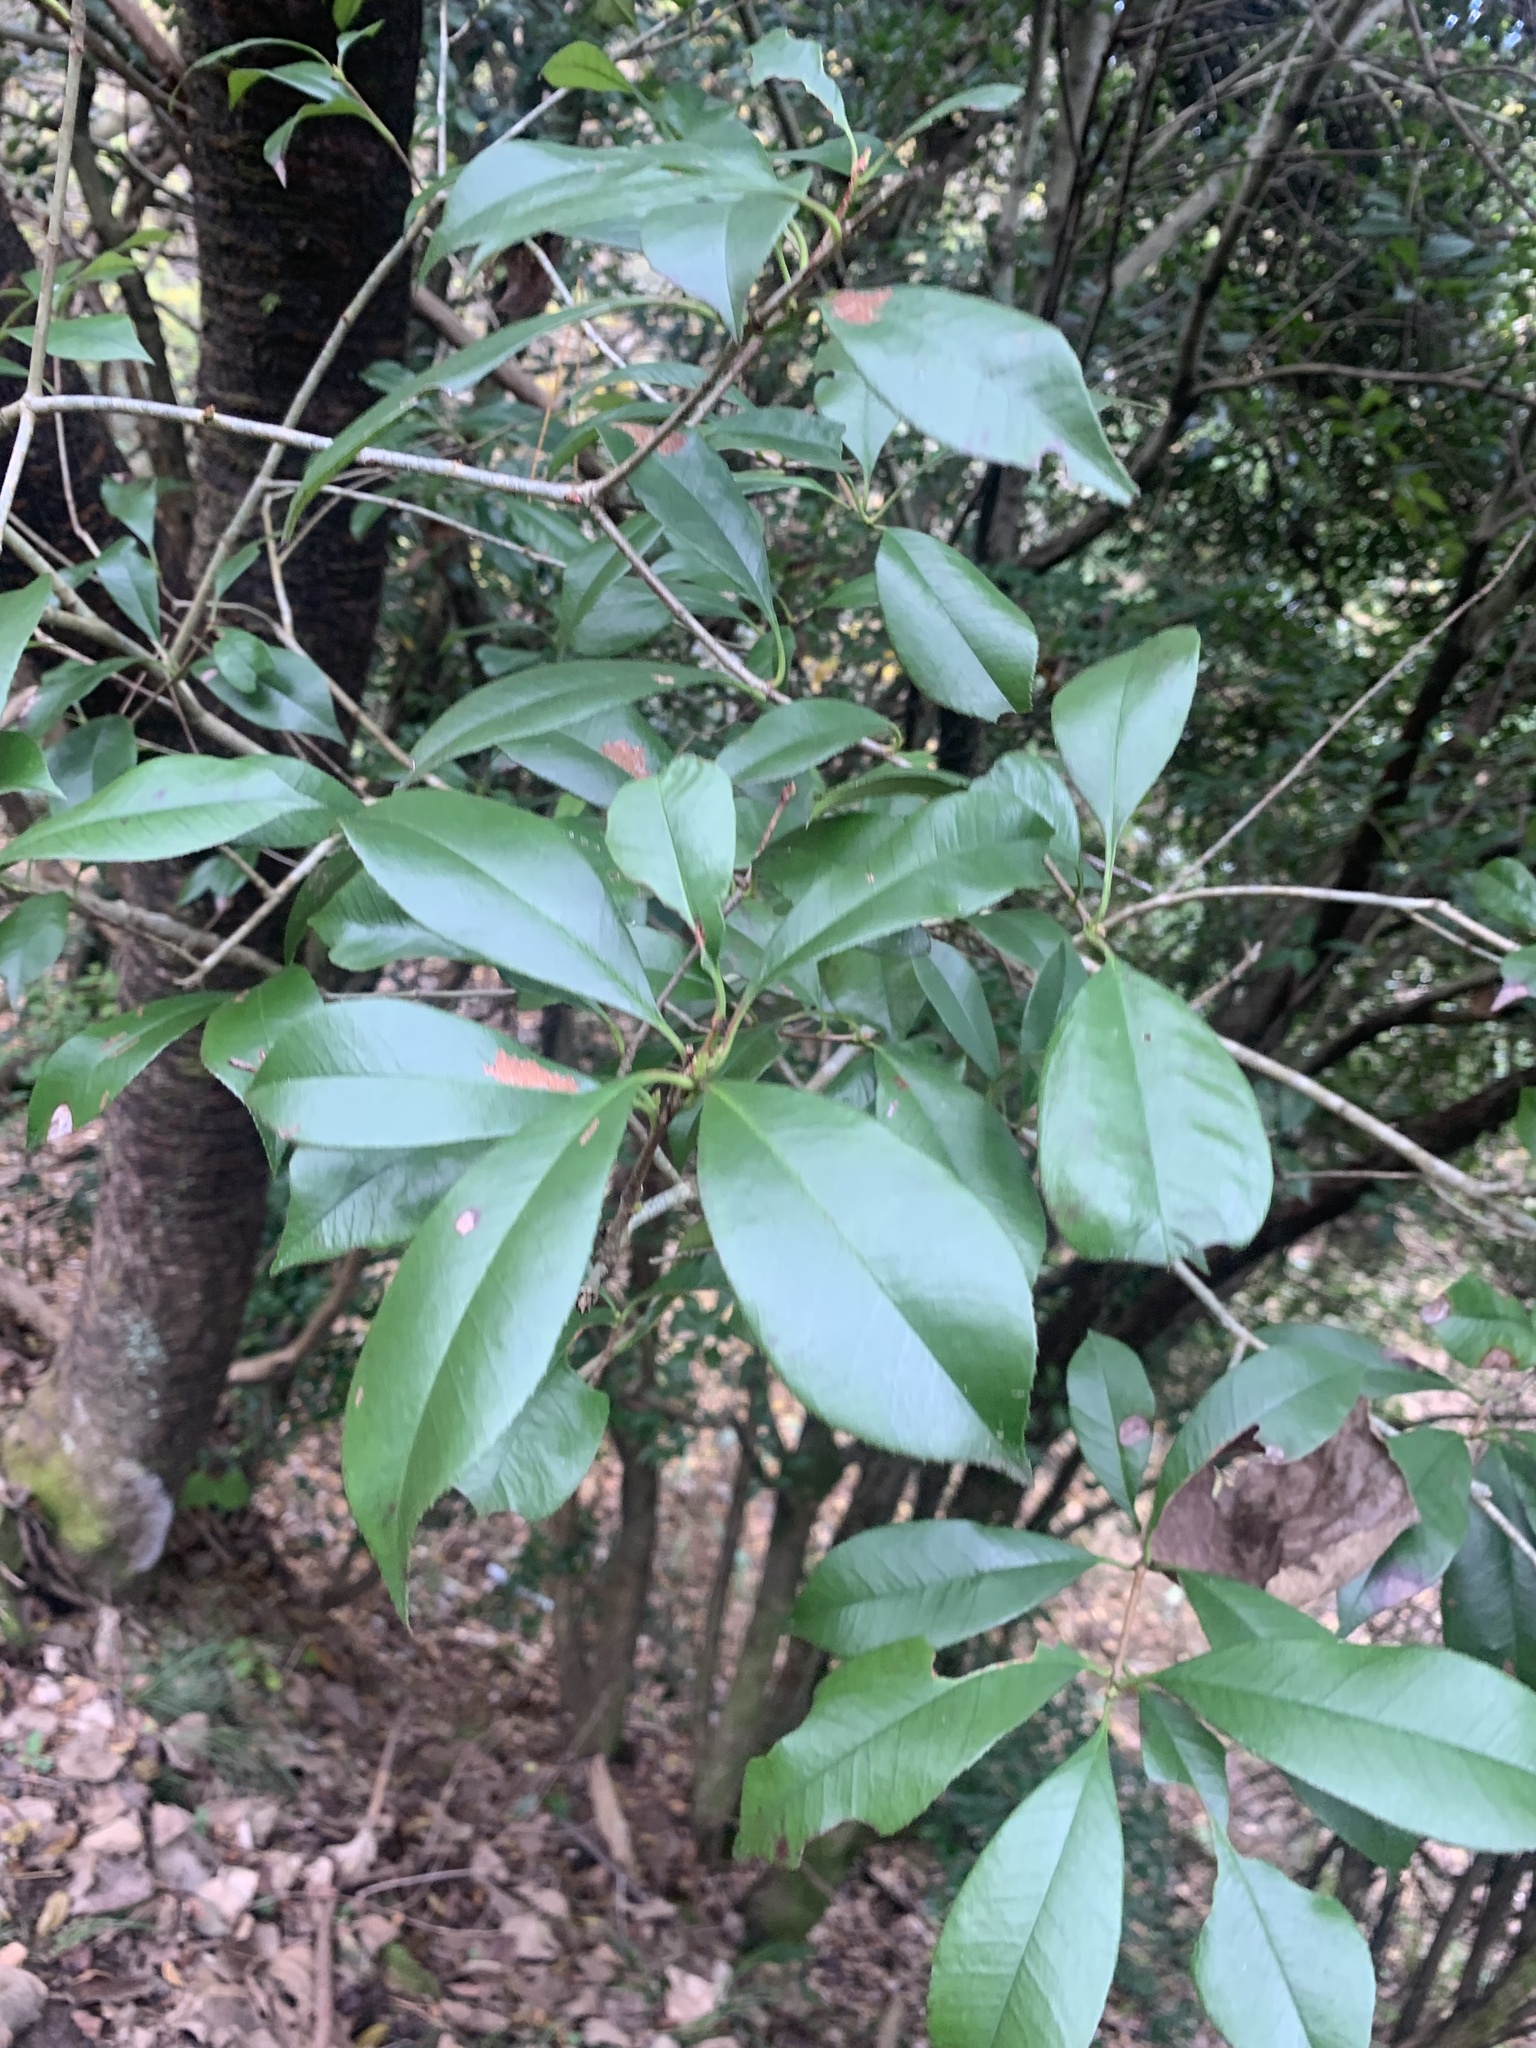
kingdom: Plantae
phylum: Tracheophyta
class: Magnoliopsida
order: Rosales
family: Rosaceae
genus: Photinia
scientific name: Photinia glabra
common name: Japanese photinia
